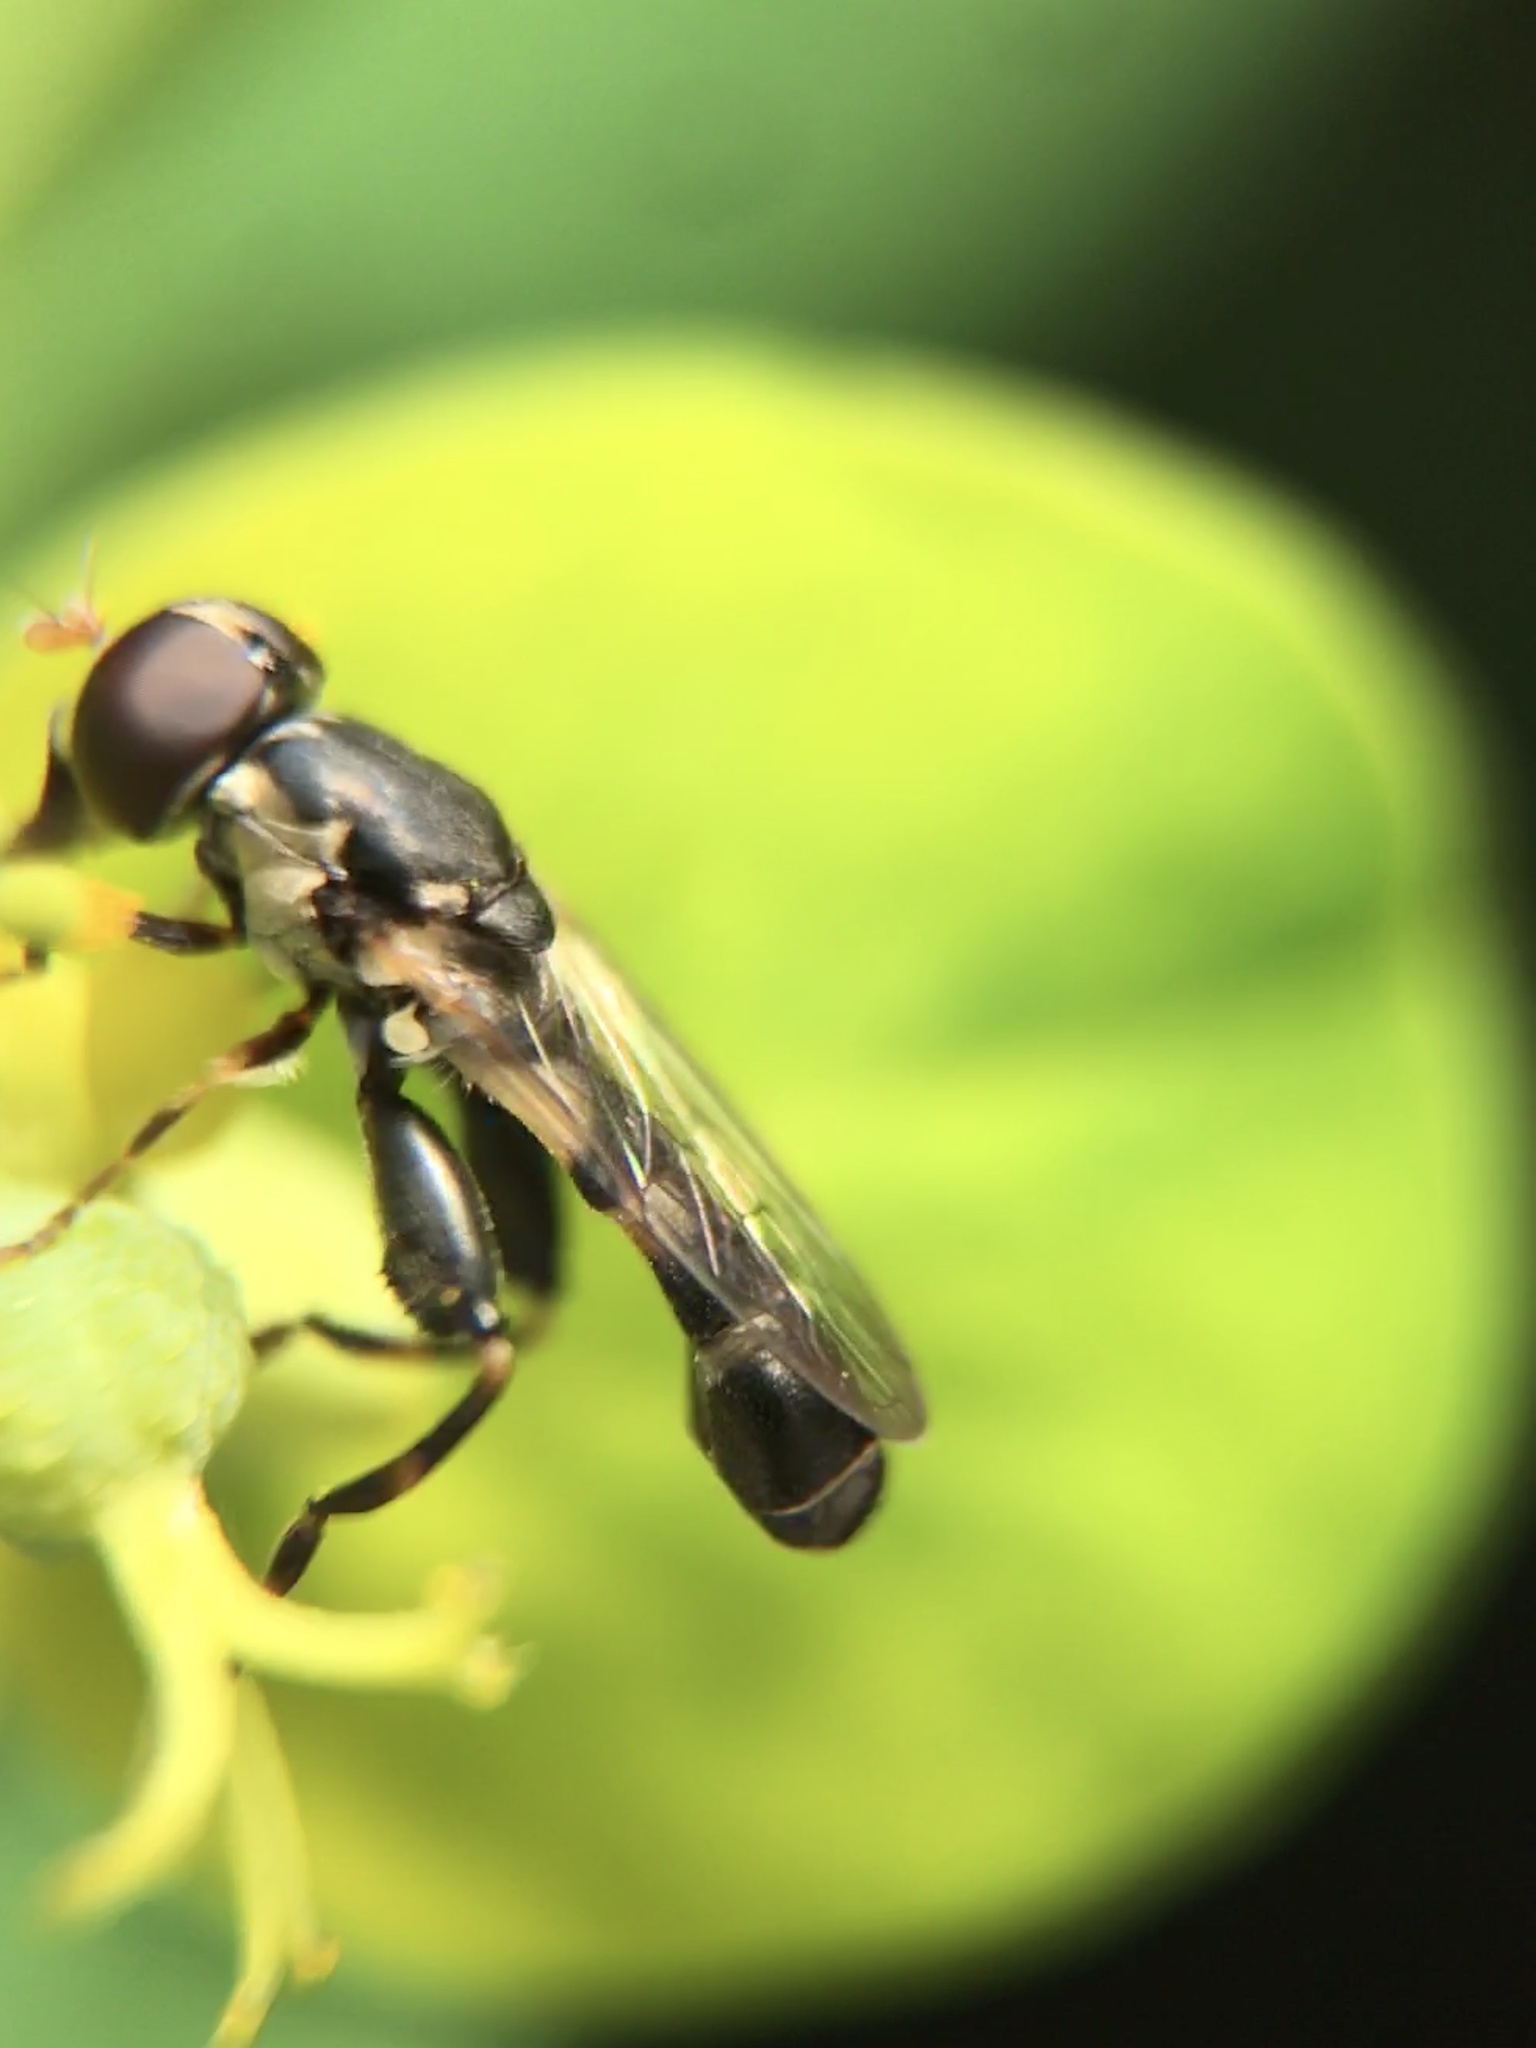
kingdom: Animalia
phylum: Arthropoda
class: Insecta
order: Diptera
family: Syrphidae
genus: Syritta
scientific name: Syritta pipiens
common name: Hover fly
